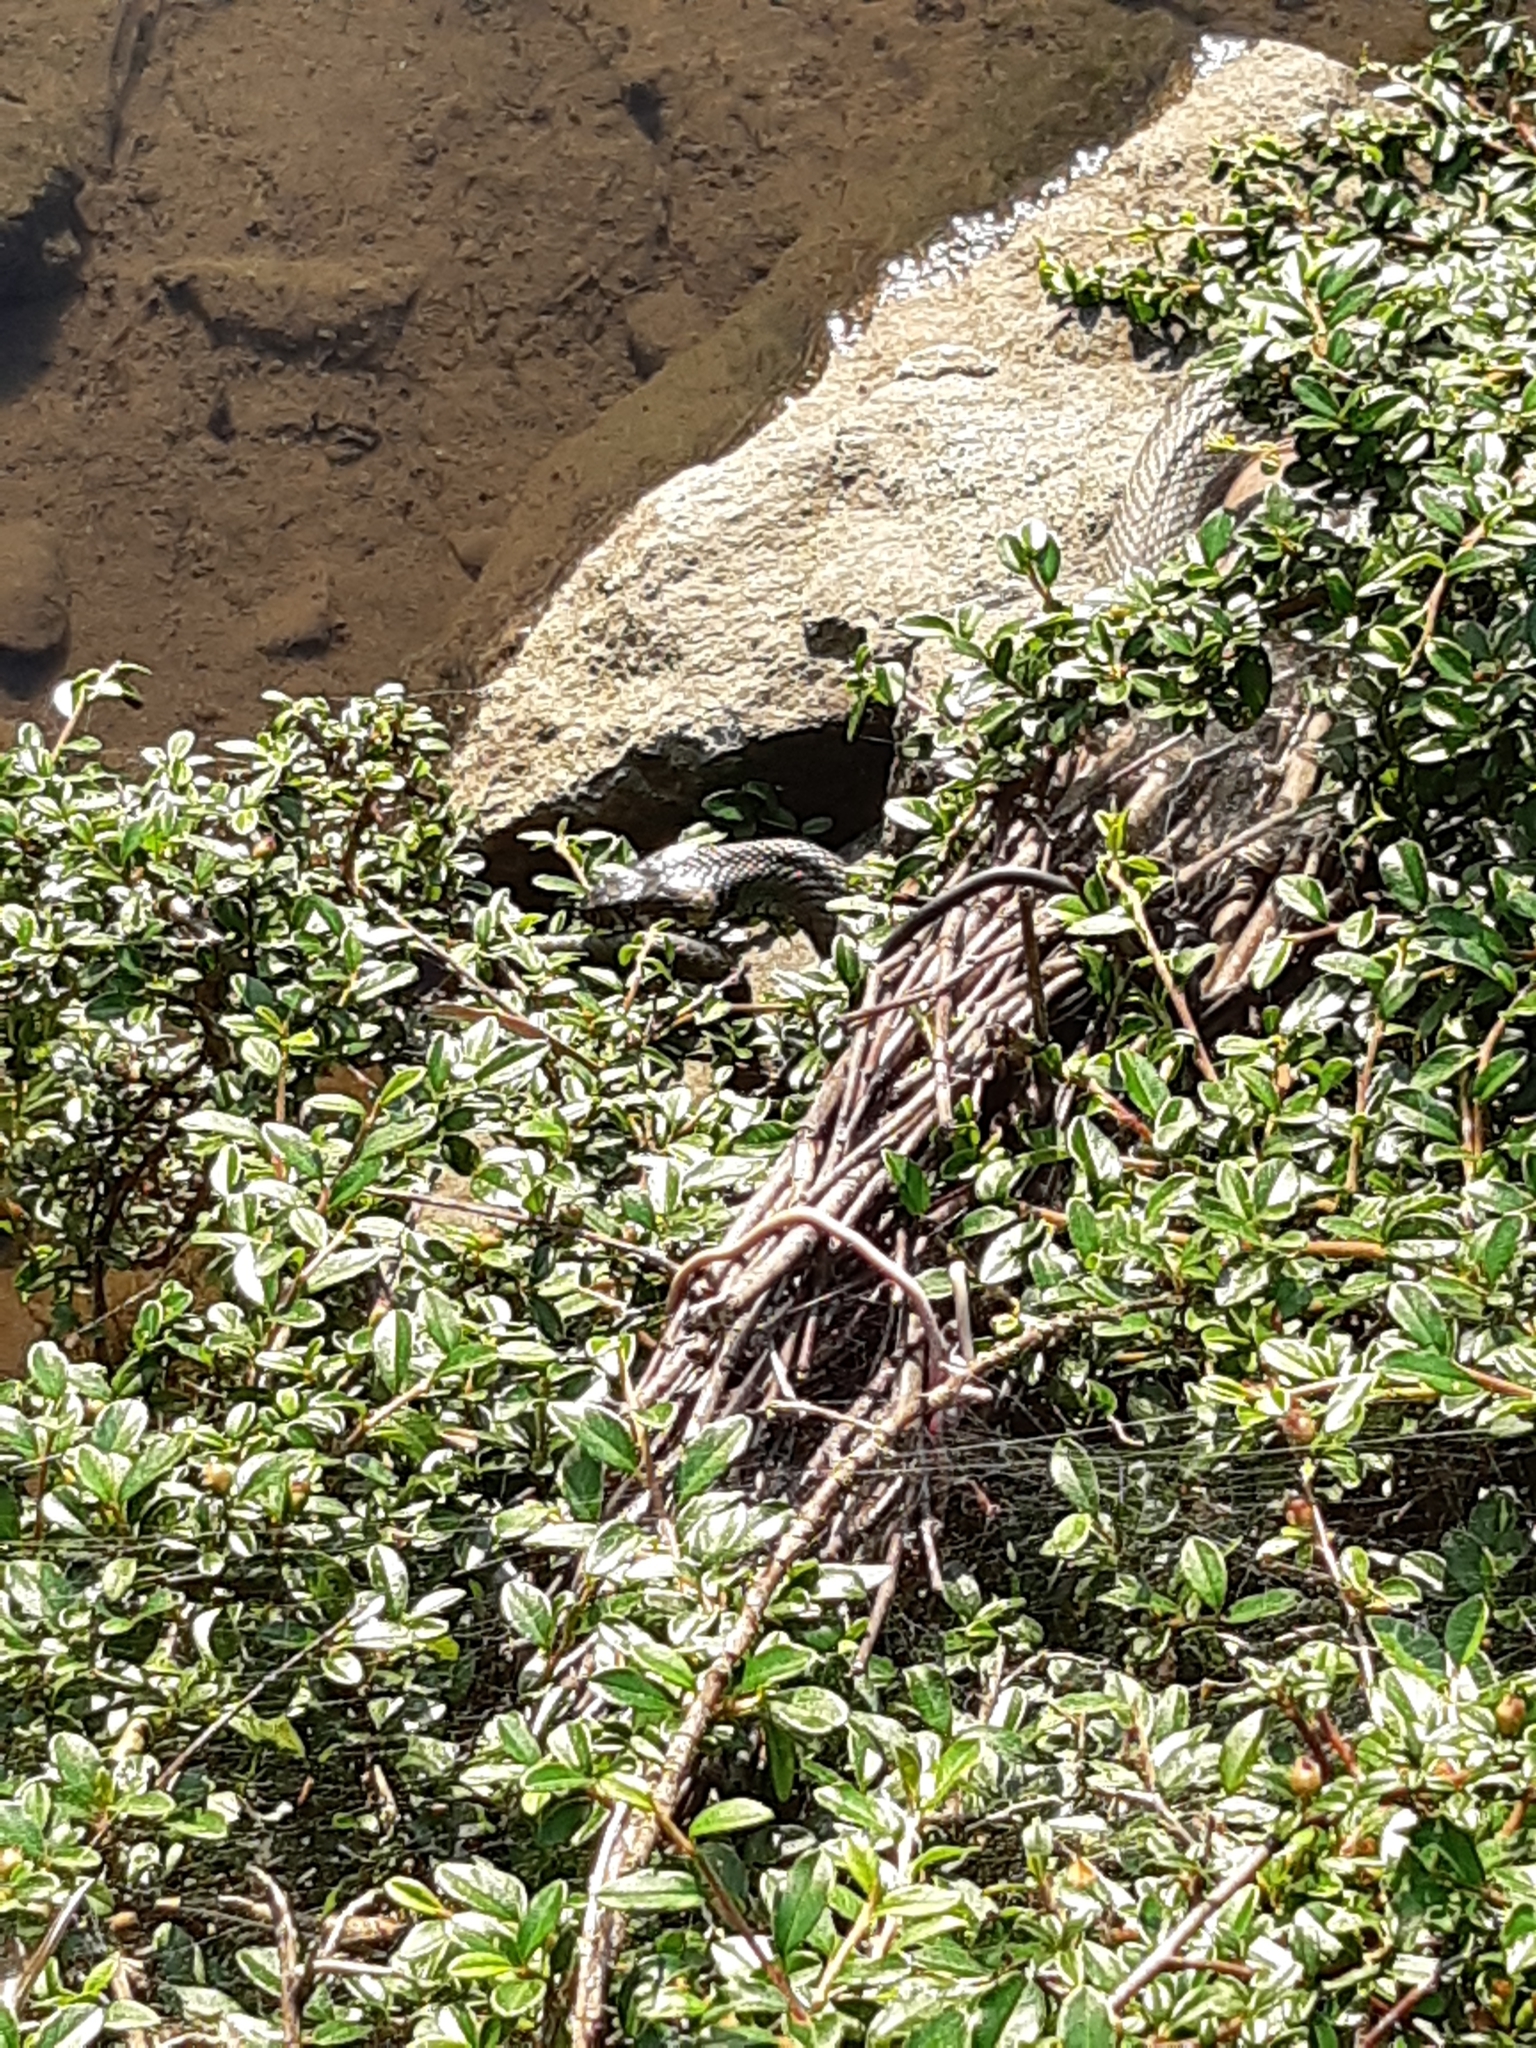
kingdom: Animalia
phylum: Chordata
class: Squamata
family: Colubridae
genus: Natrix
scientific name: Natrix natrix
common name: Grass snake
